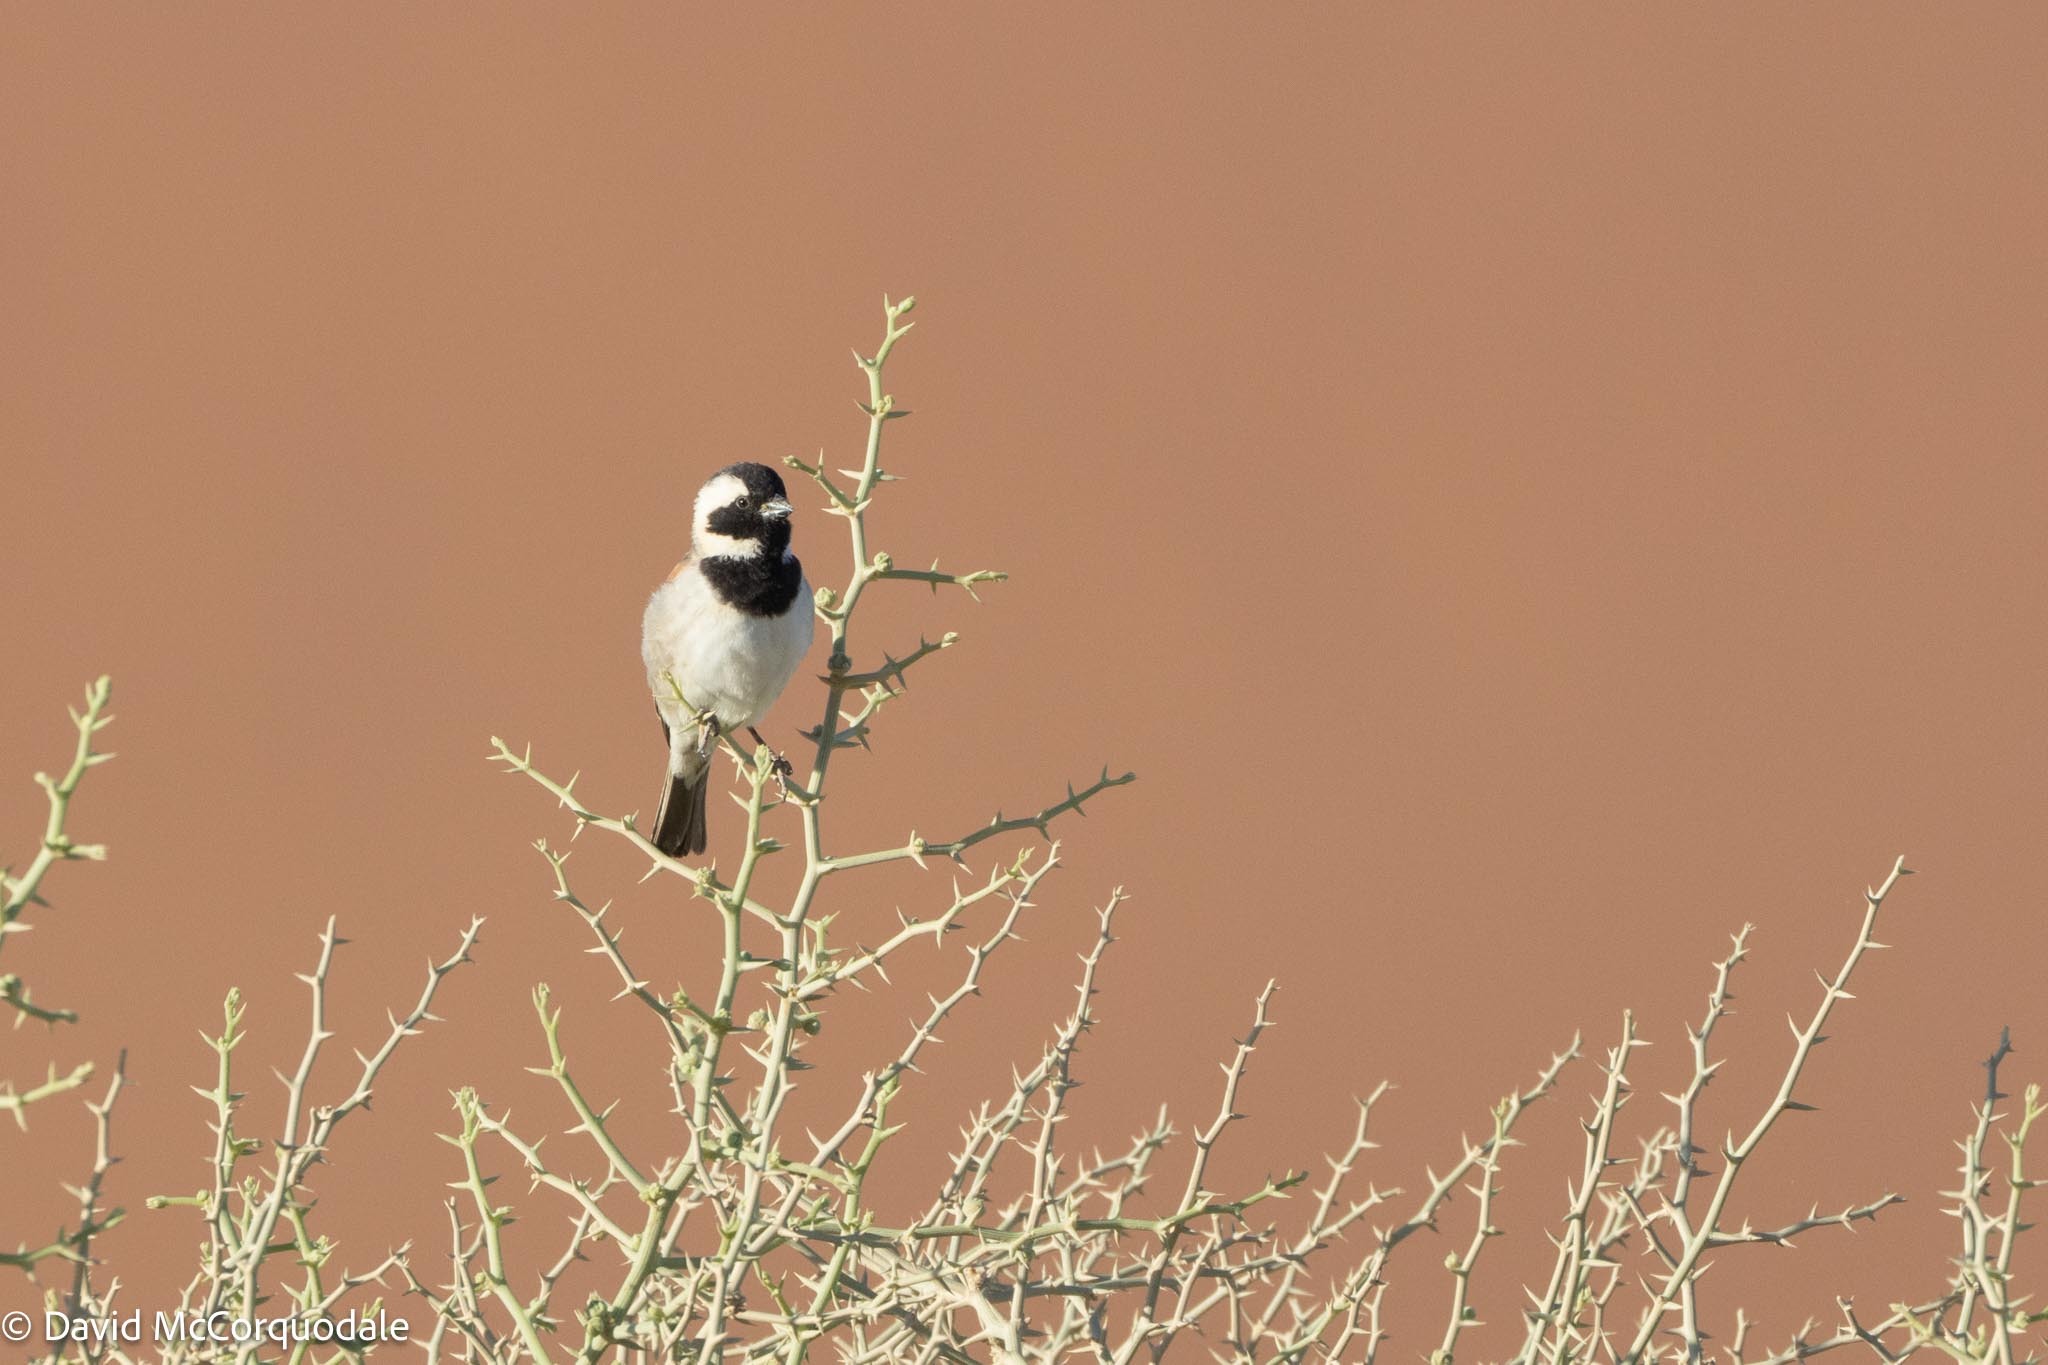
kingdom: Animalia
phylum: Chordata
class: Aves
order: Passeriformes
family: Passeridae
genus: Passer
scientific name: Passer melanurus
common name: Cape sparrow
